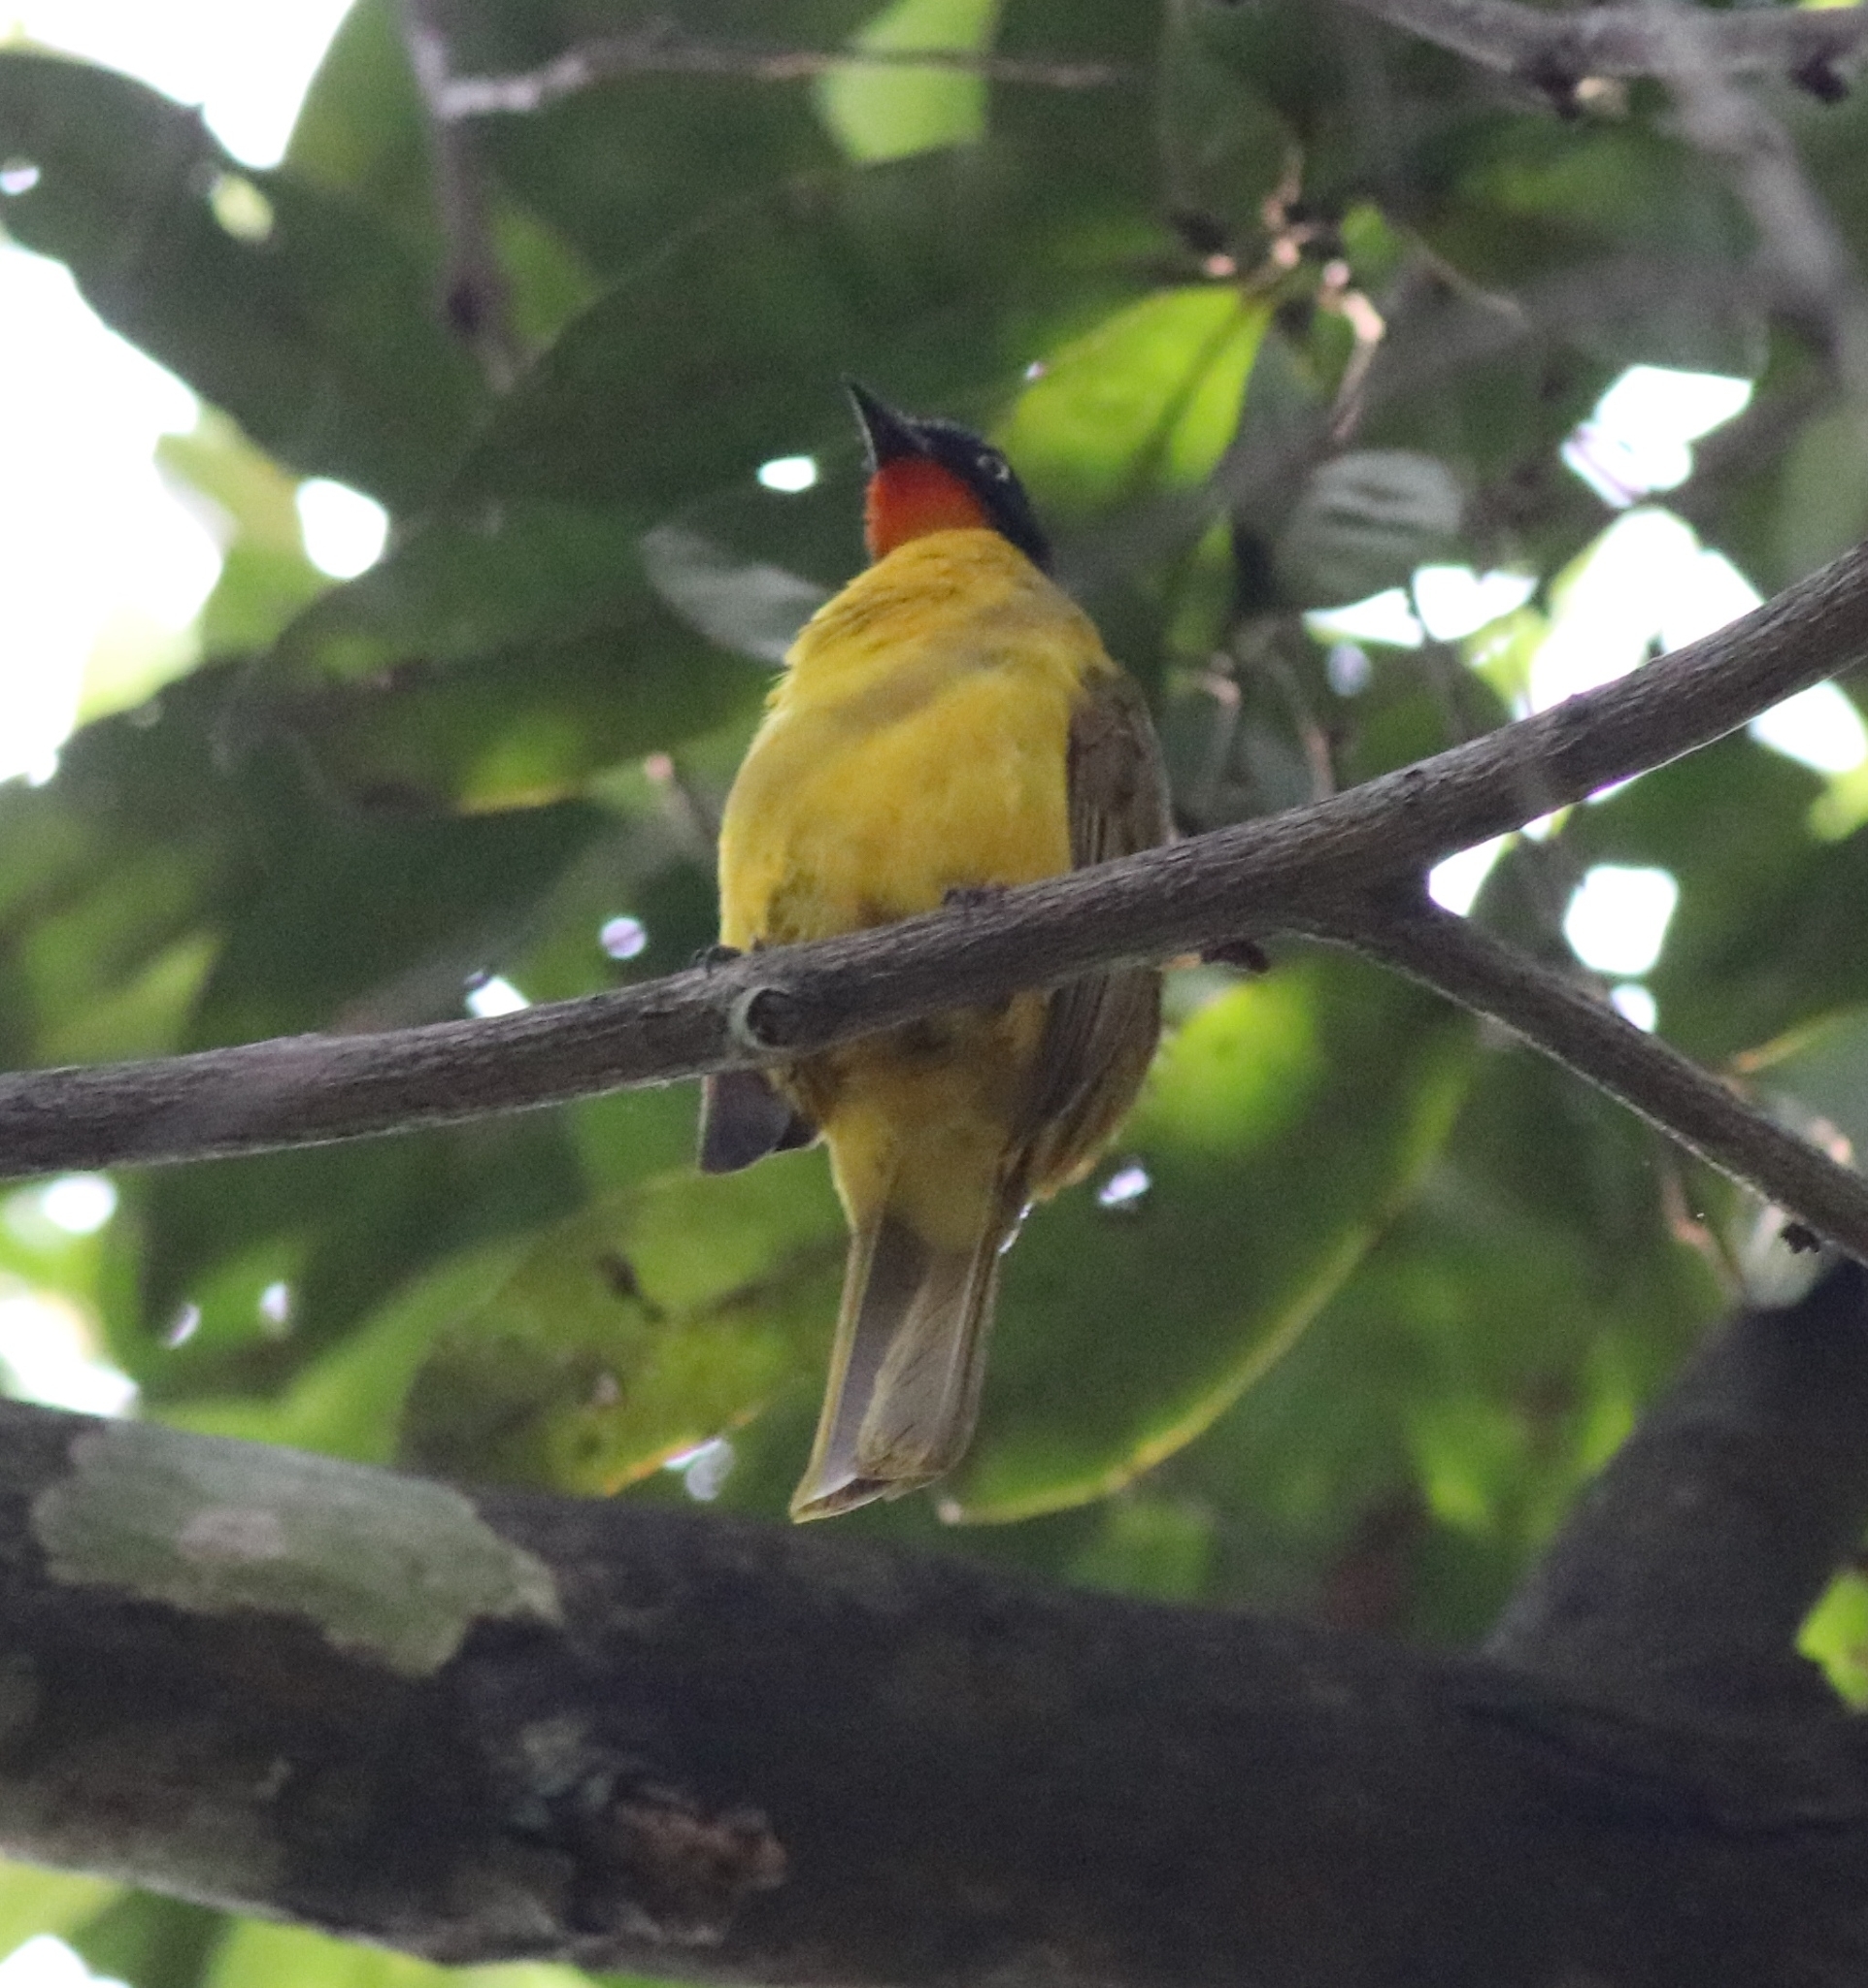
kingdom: Animalia
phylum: Chordata
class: Aves
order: Passeriformes
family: Pycnonotidae
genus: Pycnonotus
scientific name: Pycnonotus gularis
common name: Flame-throated bulbul
